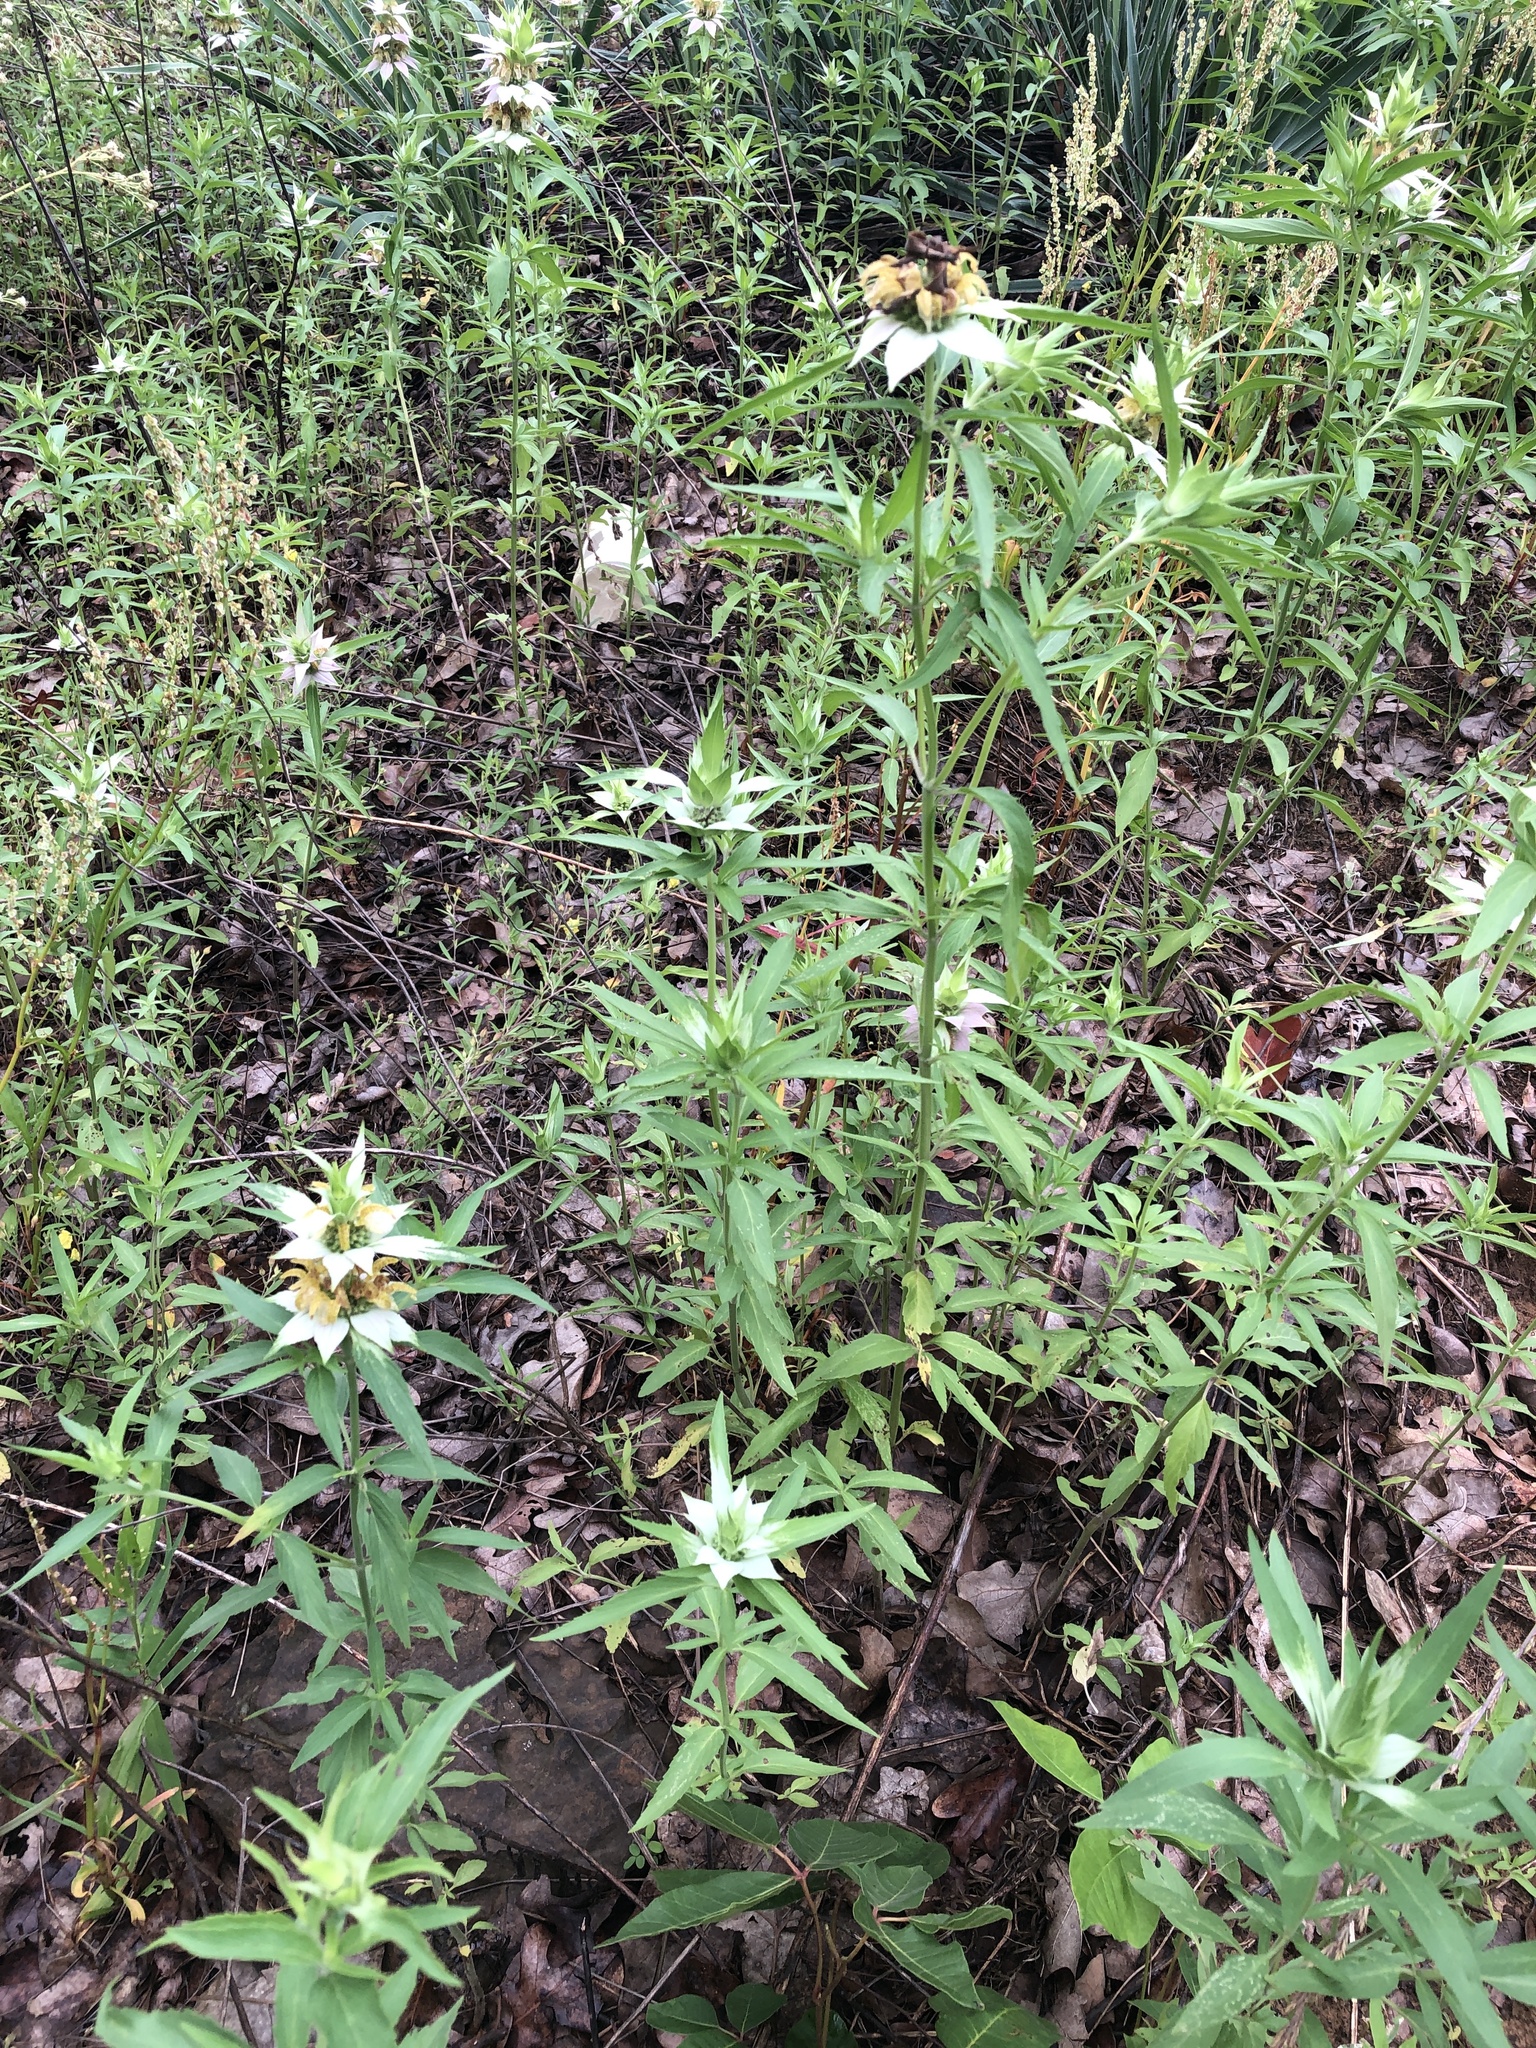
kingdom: Plantae
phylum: Tracheophyta
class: Magnoliopsida
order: Lamiales
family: Lamiaceae
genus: Monarda
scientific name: Monarda punctata
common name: Dotted monarda
